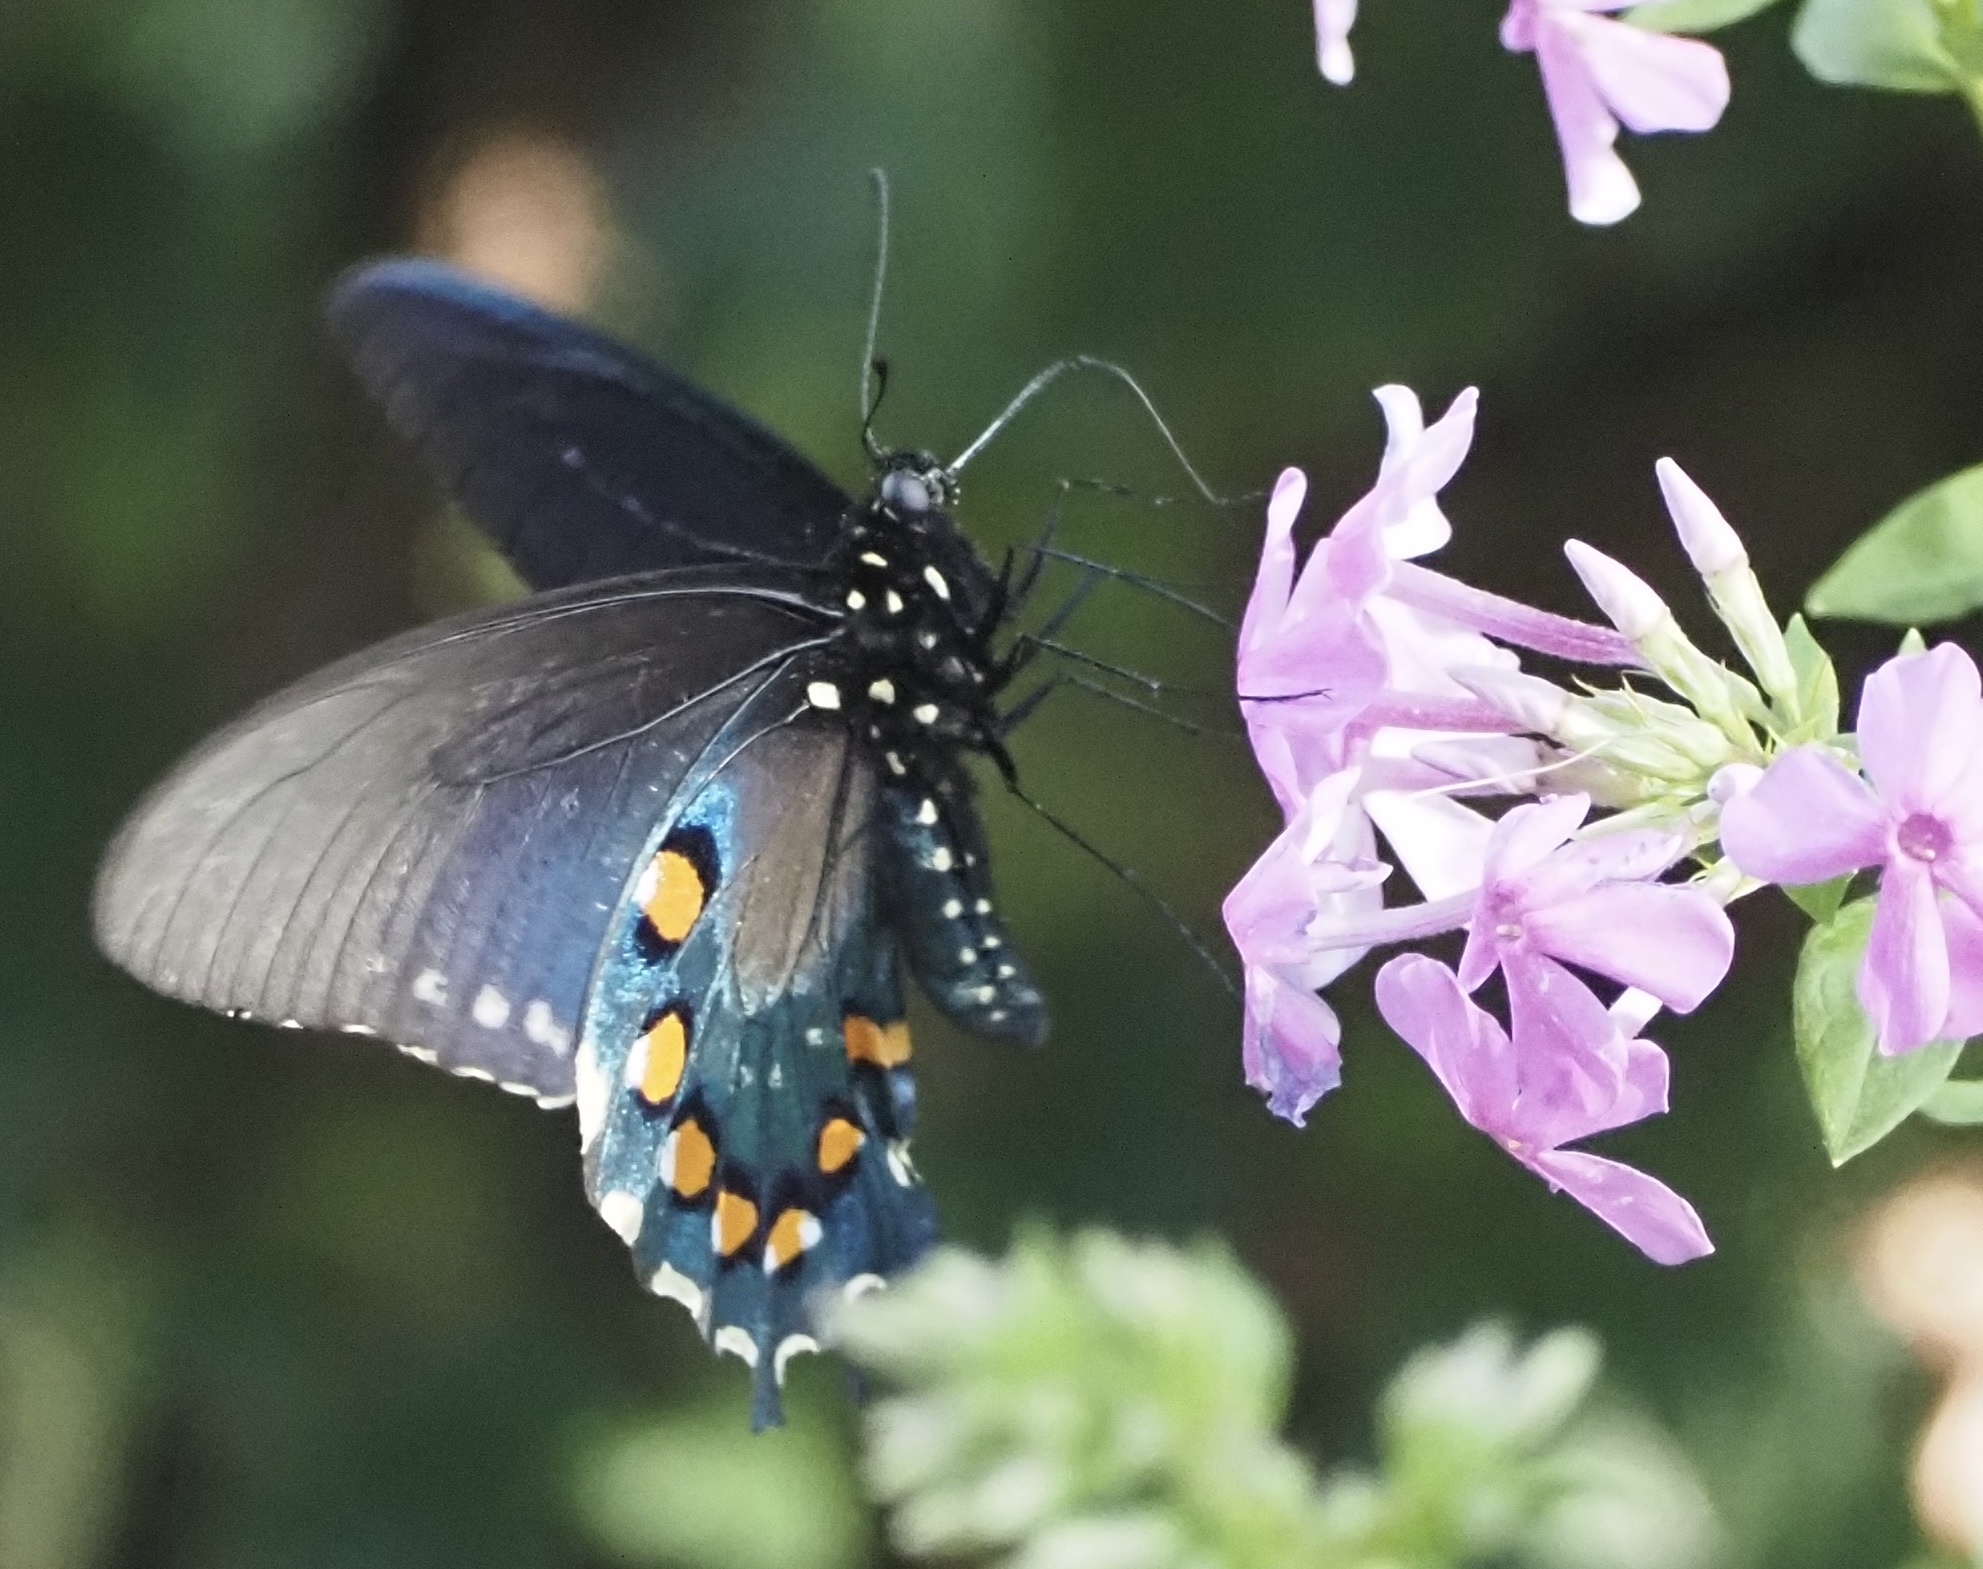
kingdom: Animalia
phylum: Arthropoda
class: Insecta
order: Lepidoptera
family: Papilionidae
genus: Battus
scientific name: Battus philenor
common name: Pipevine swallowtail
